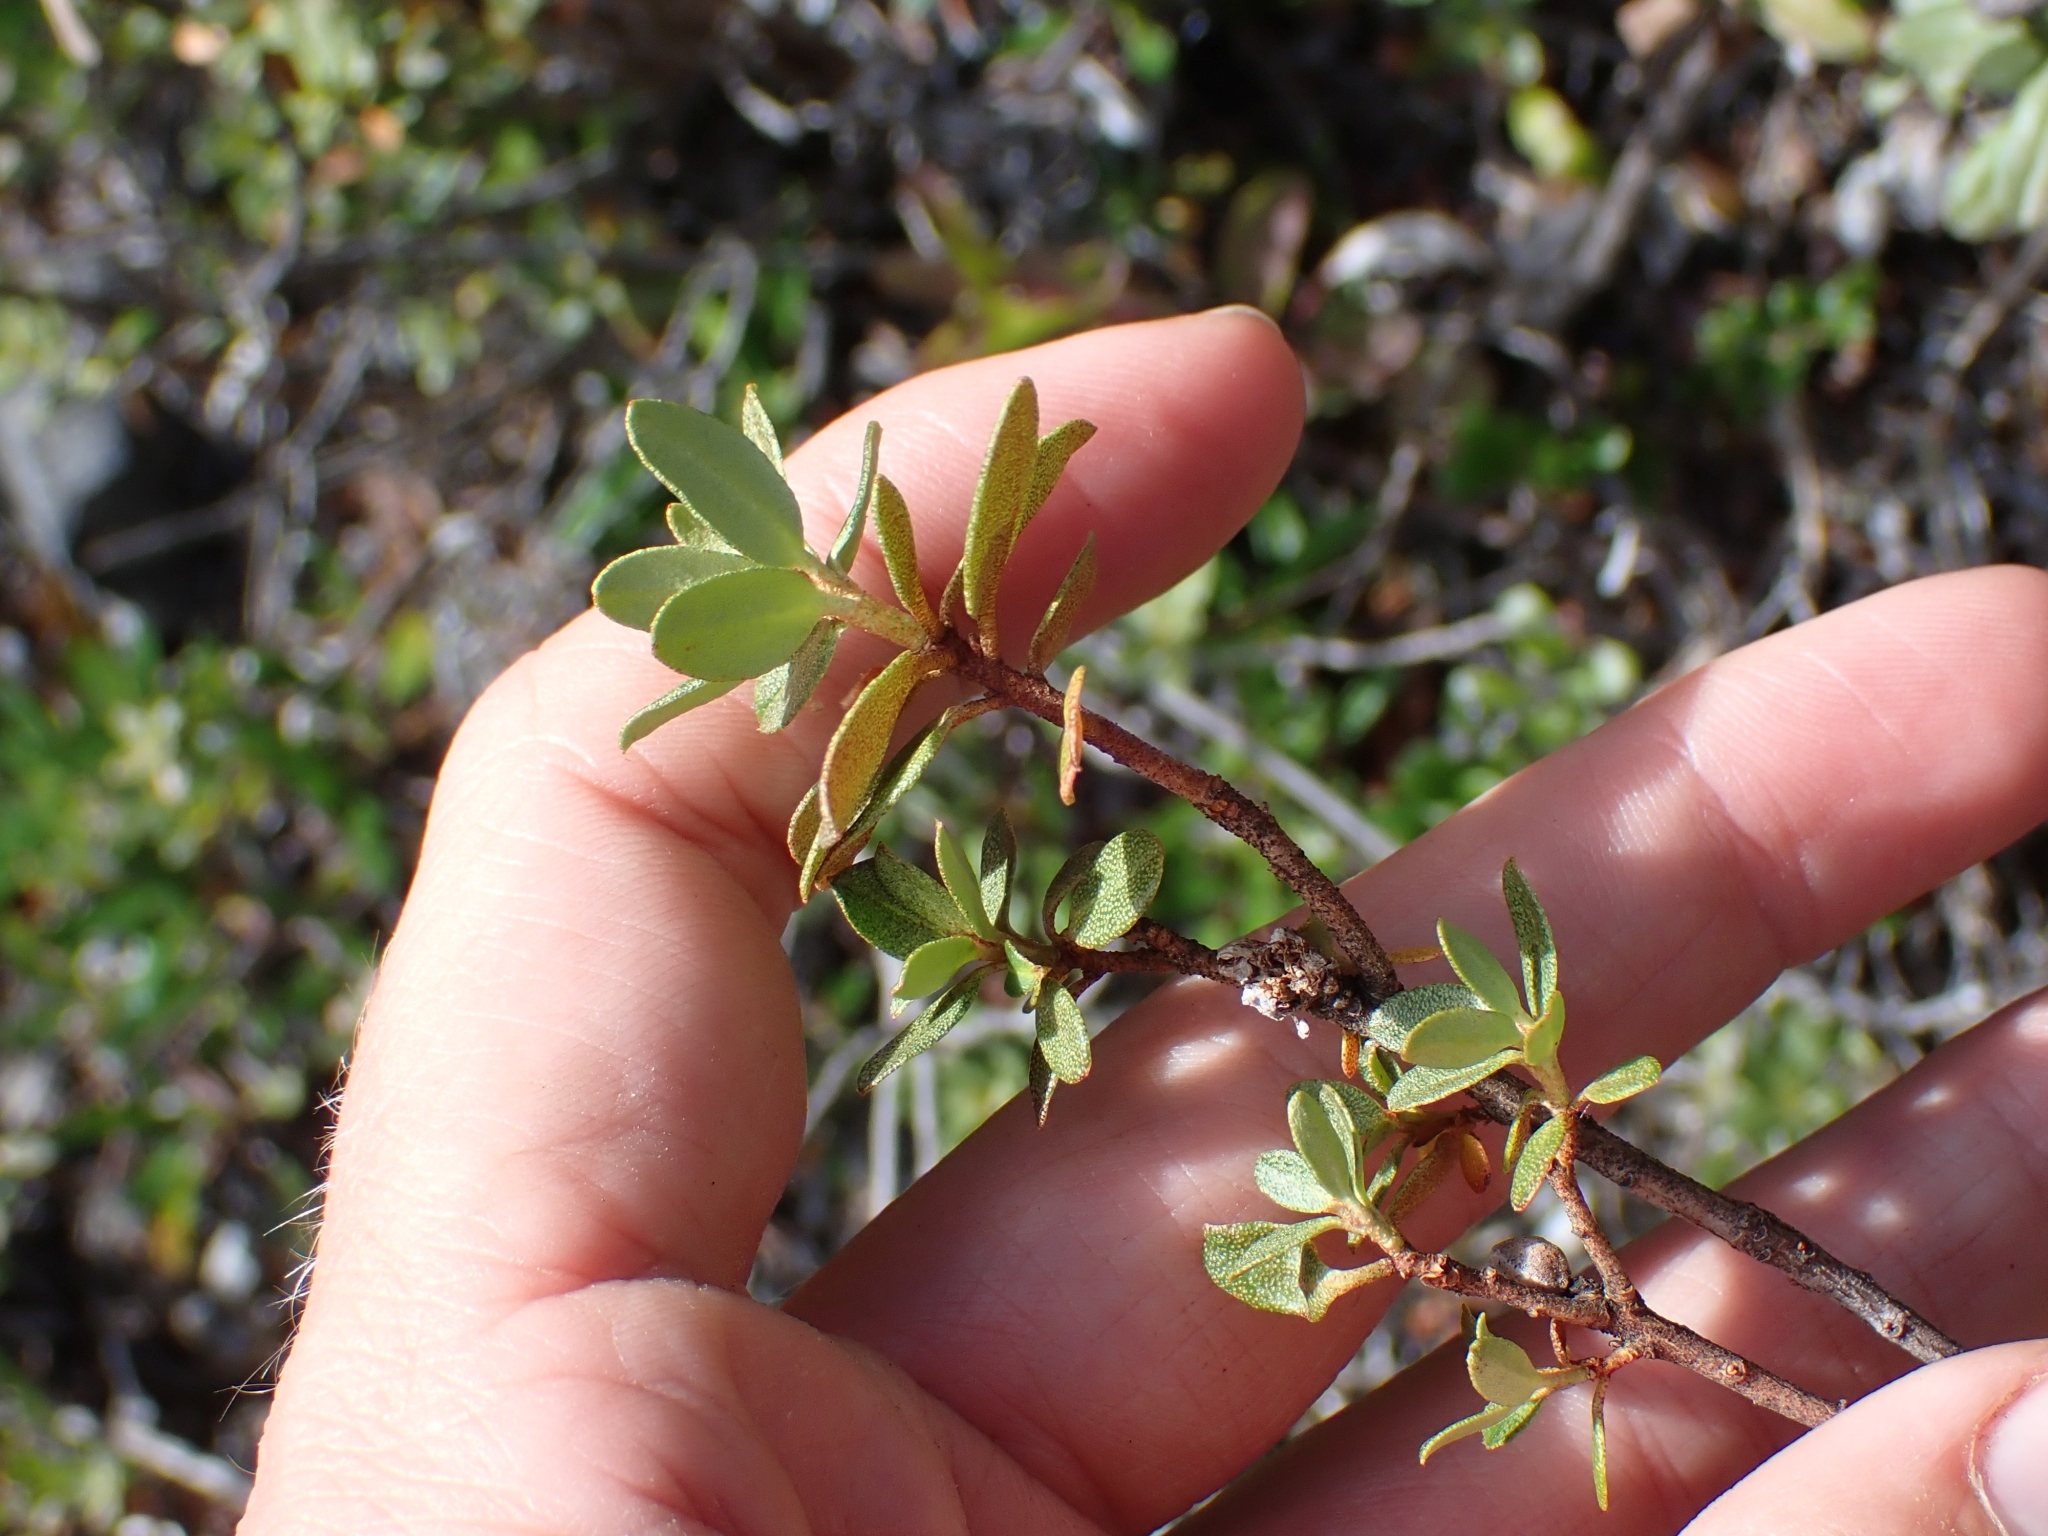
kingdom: Plantae
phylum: Tracheophyta
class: Magnoliopsida
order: Ericales
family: Ericaceae
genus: Rhododendron
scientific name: Rhododendron lapponicum
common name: Lapland rhododendron
